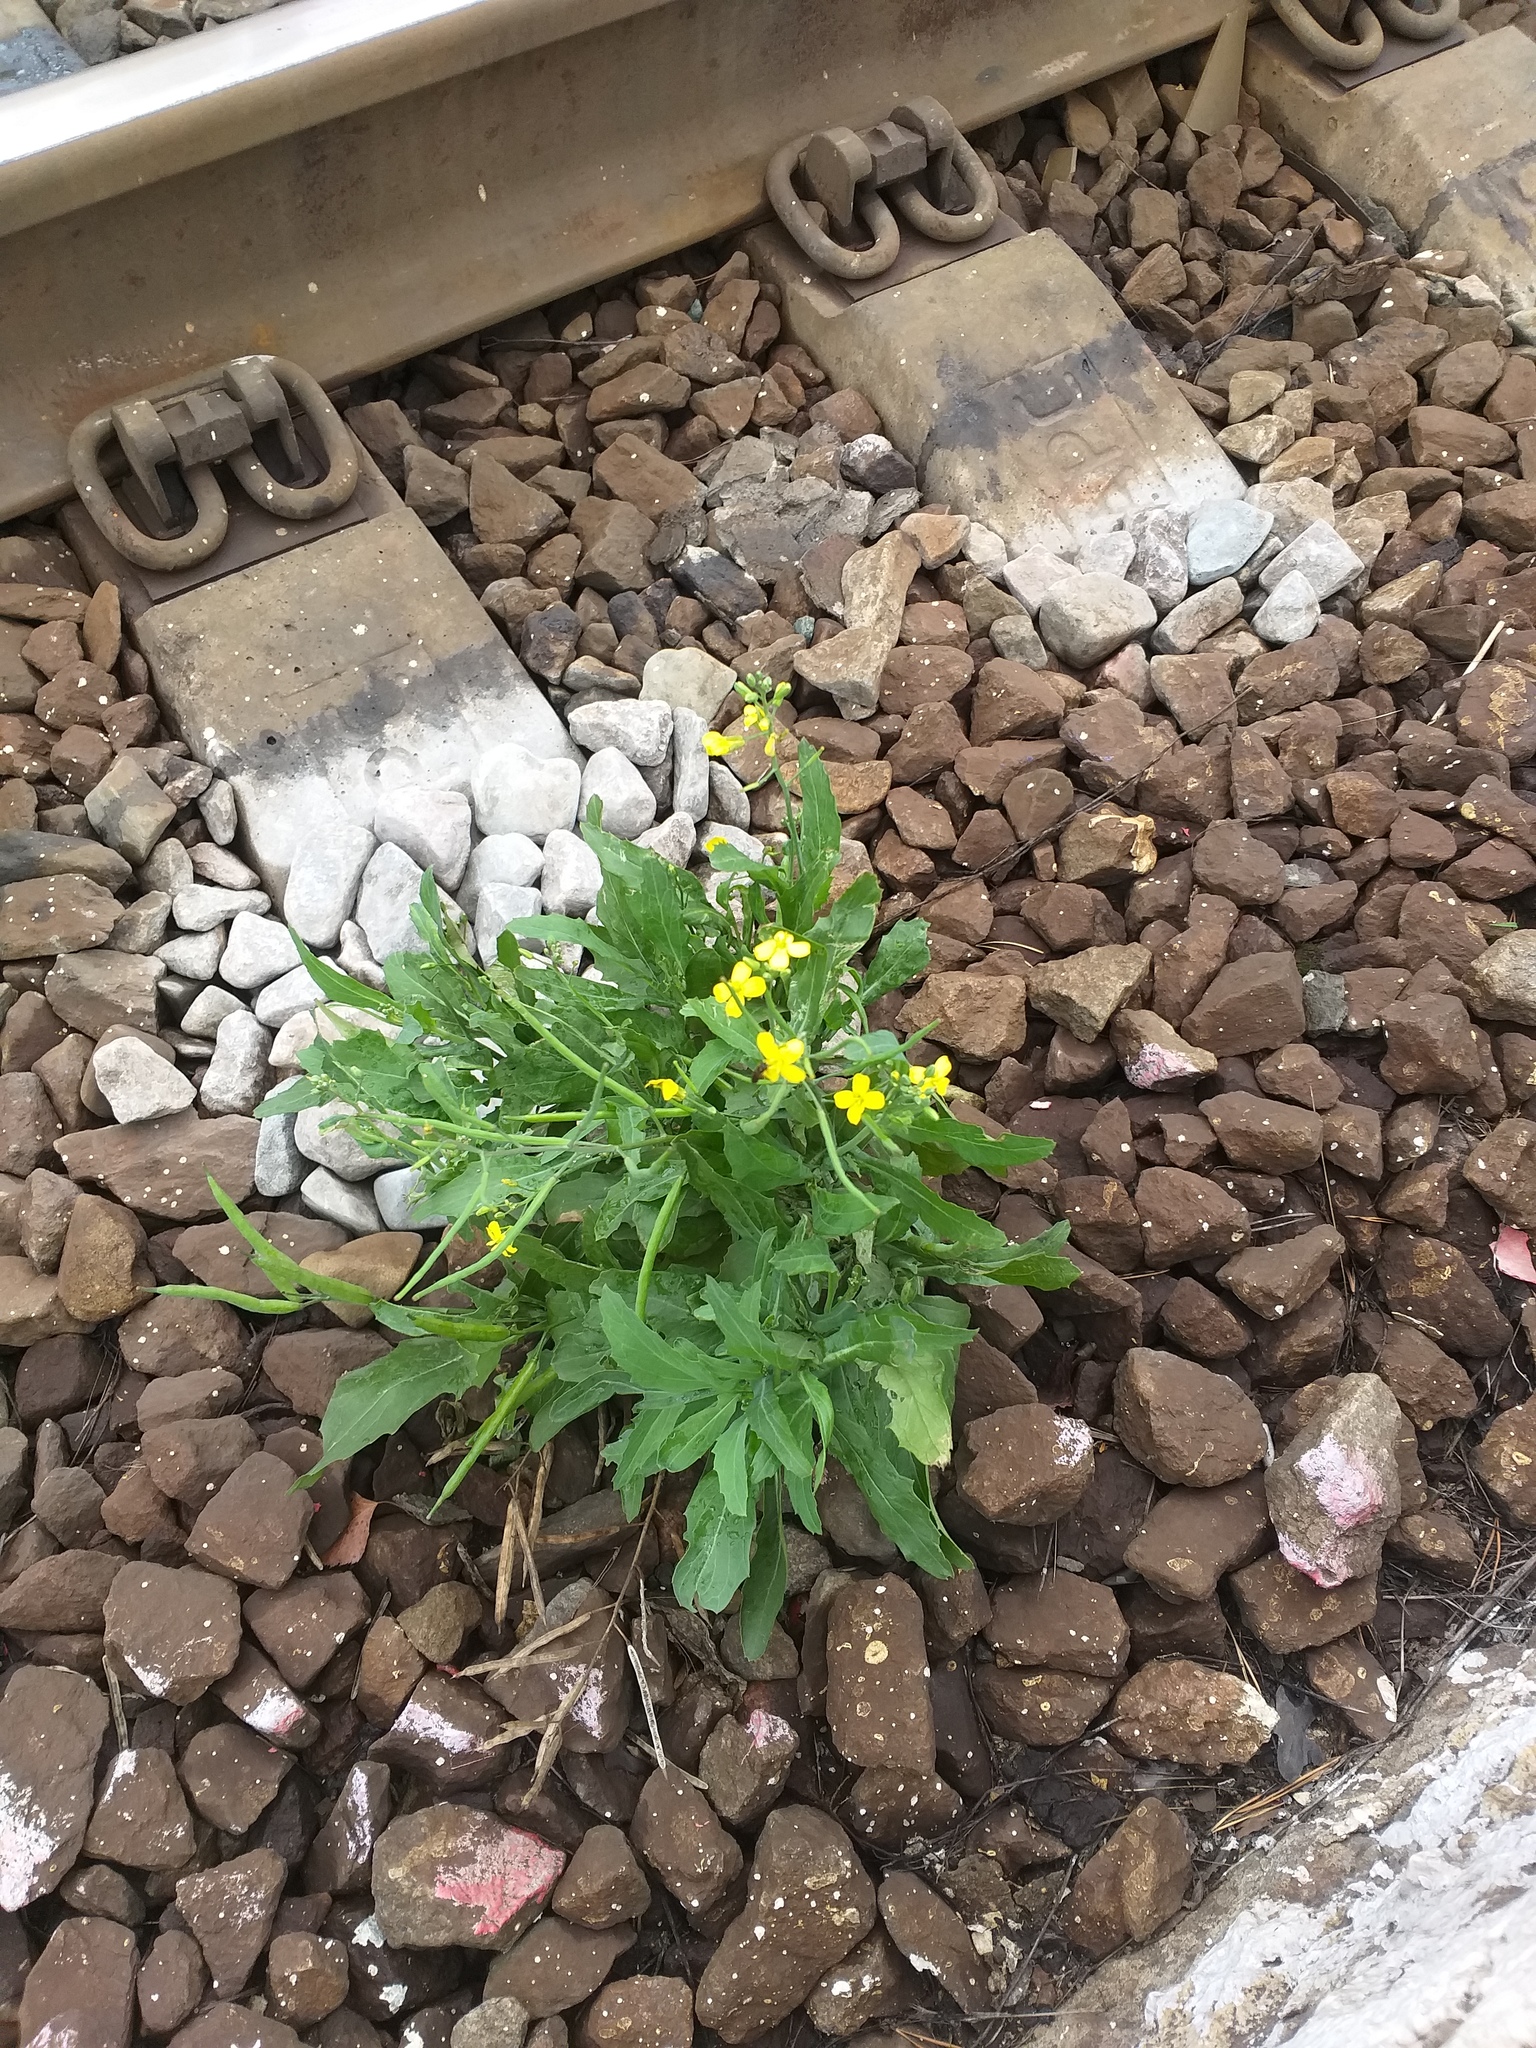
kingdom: Plantae
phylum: Tracheophyta
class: Magnoliopsida
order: Brassicales
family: Brassicaceae
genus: Brassica
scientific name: Brassica napus
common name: Rape
